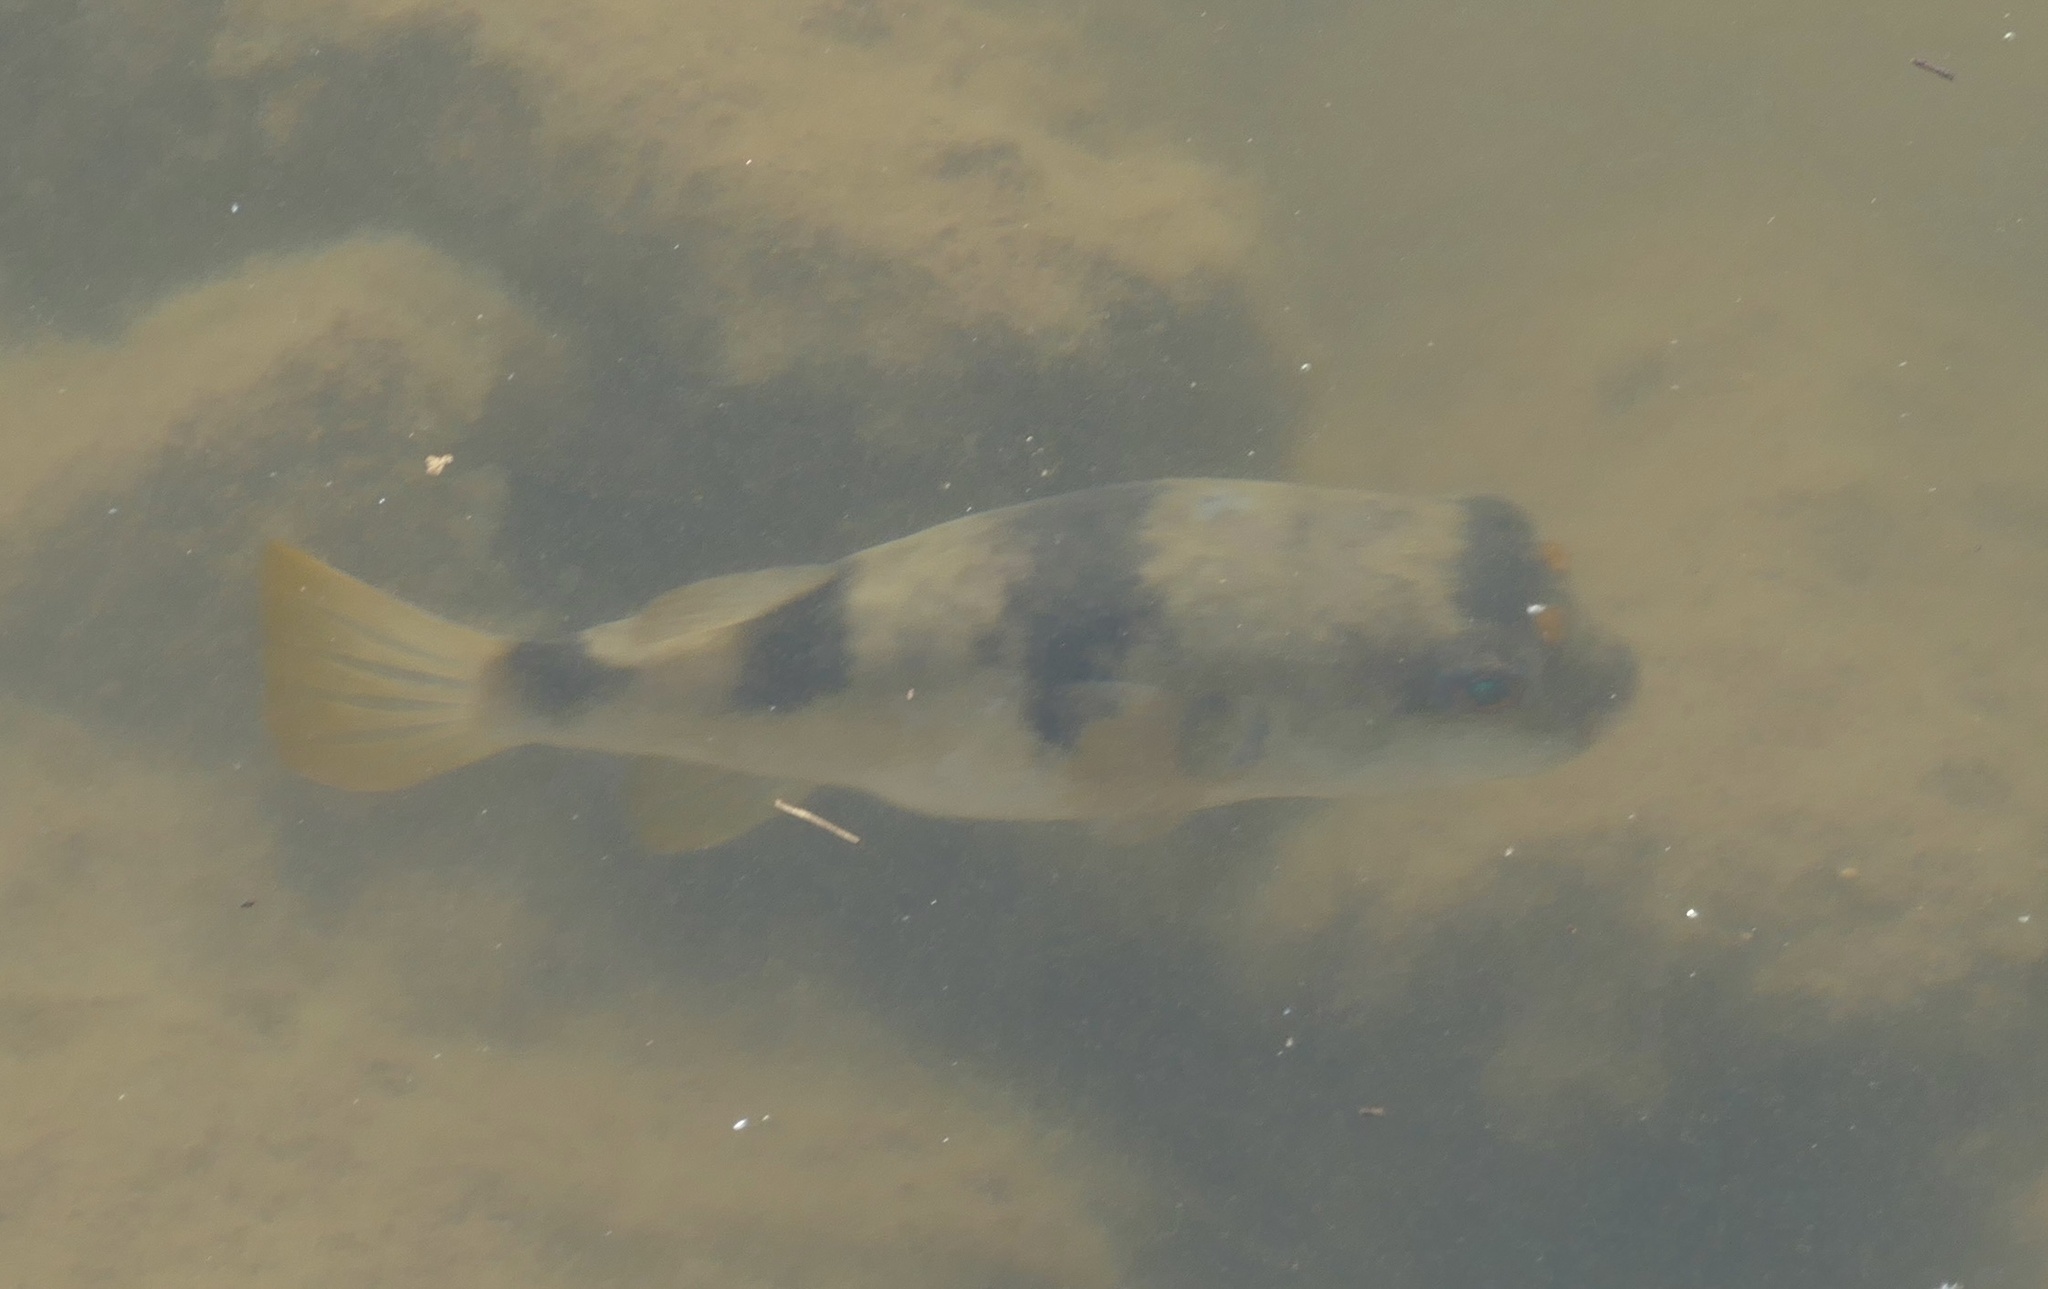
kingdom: Animalia
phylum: Chordata
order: Tetraodontiformes
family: Tetraodontidae
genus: Marilyna
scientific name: Marilyna pleurosticta
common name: Banded toadfish
